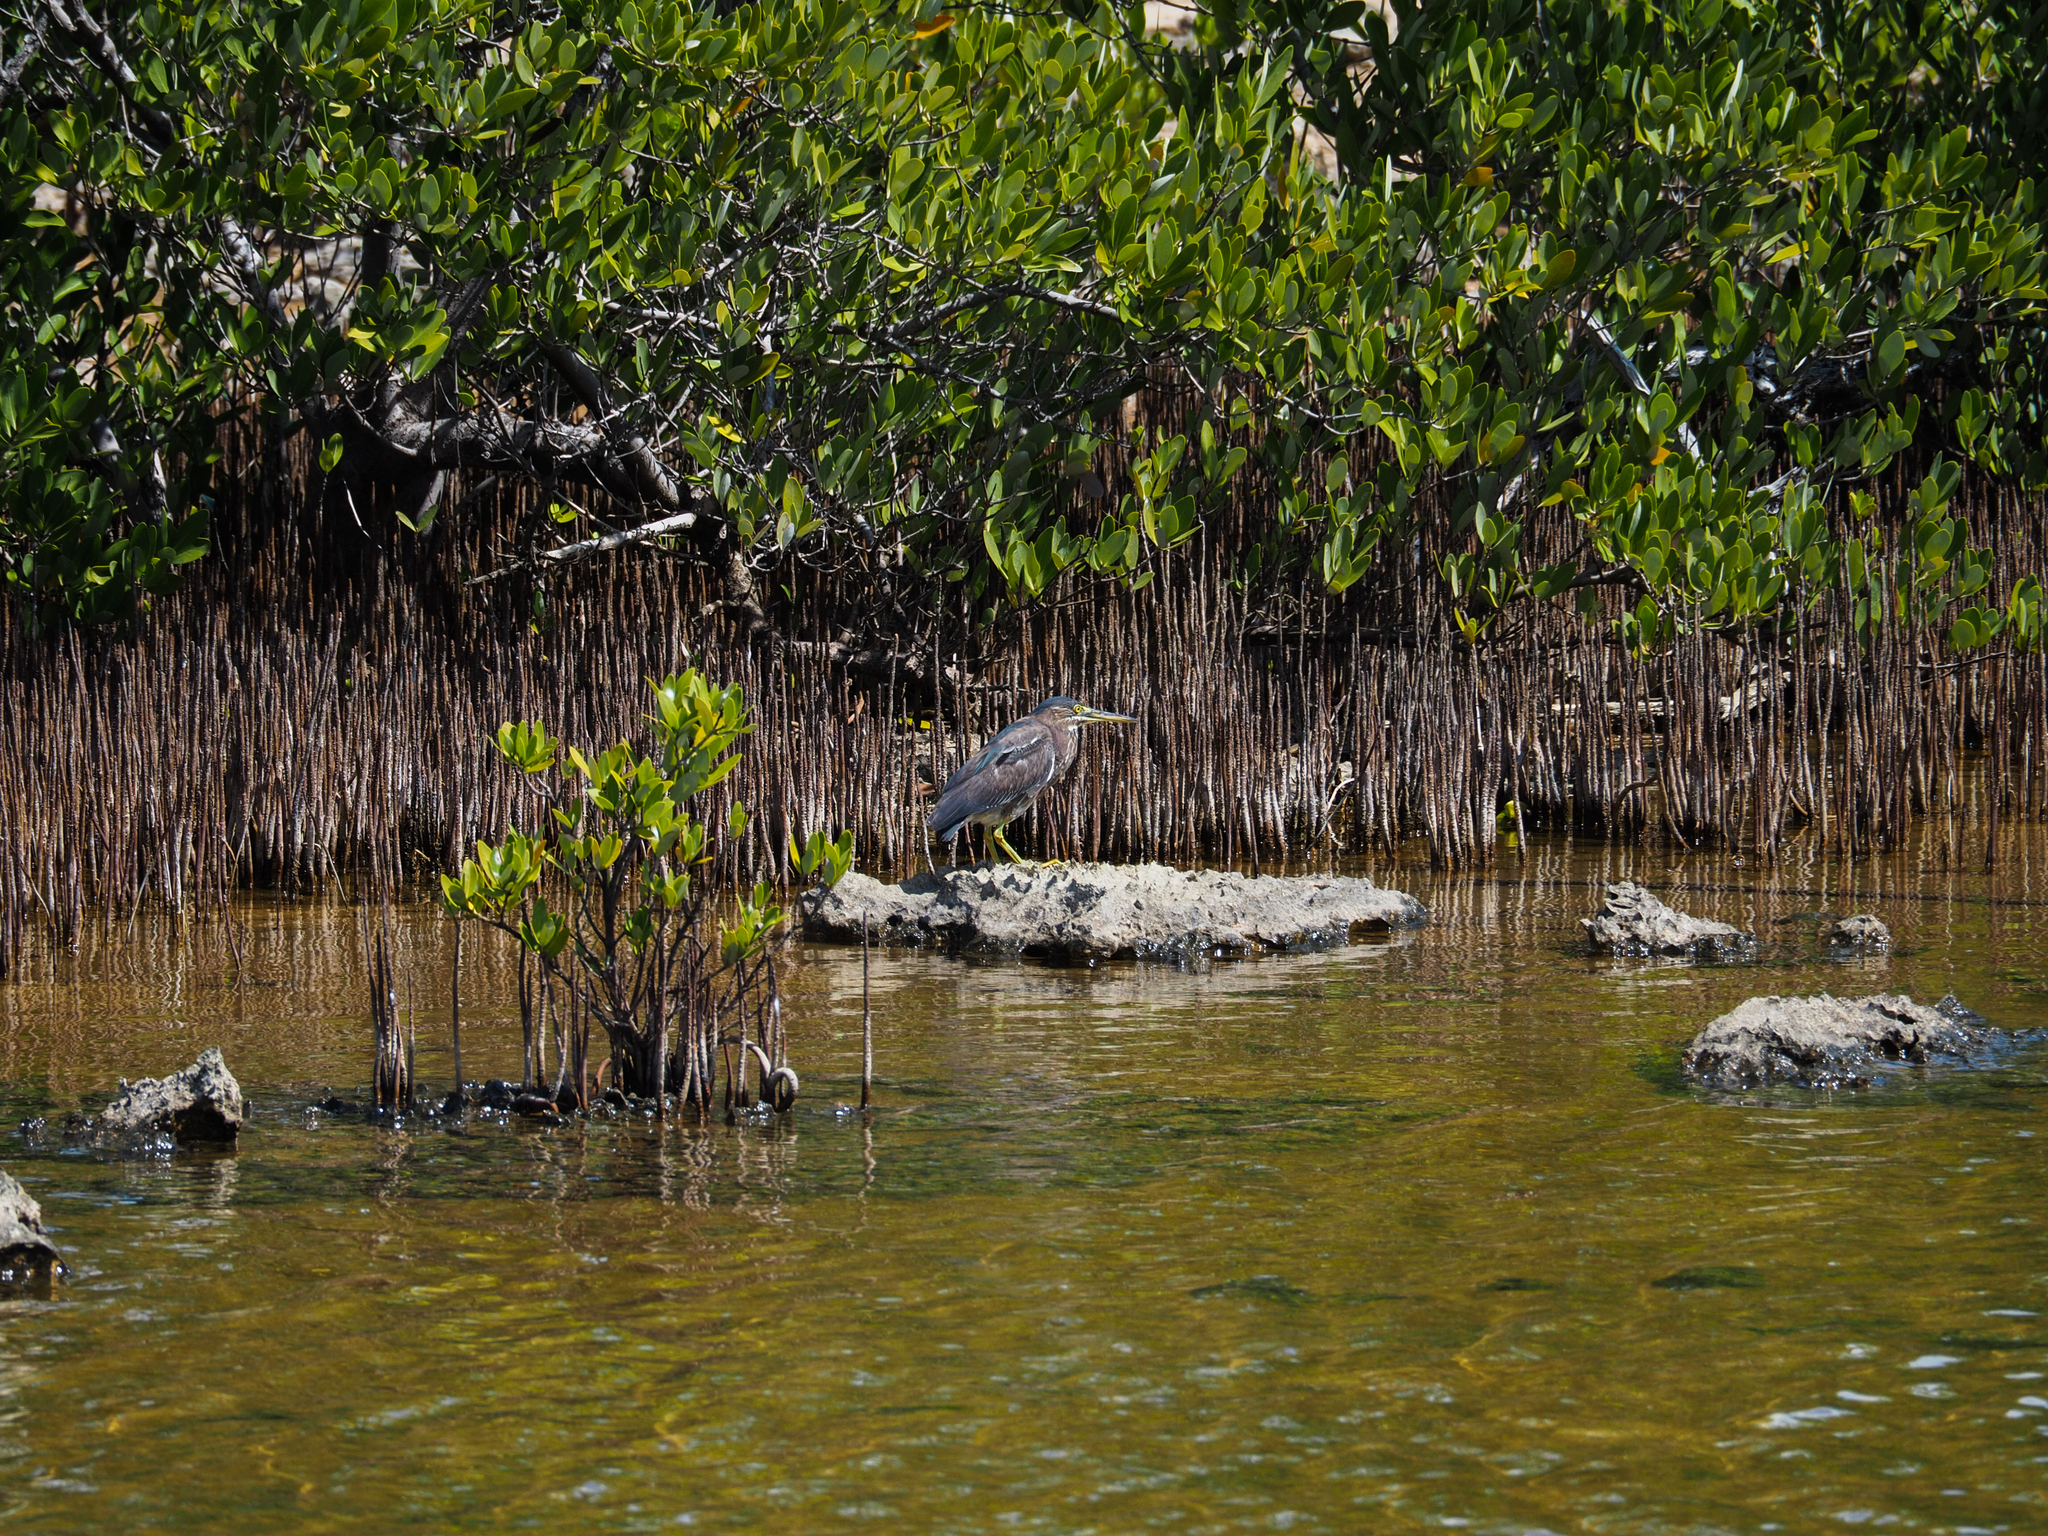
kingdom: Plantae
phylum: Tracheophyta
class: Magnoliopsida
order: Lamiales
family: Acanthaceae
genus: Avicennia
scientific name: Avicennia germinans
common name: Black mangrove
